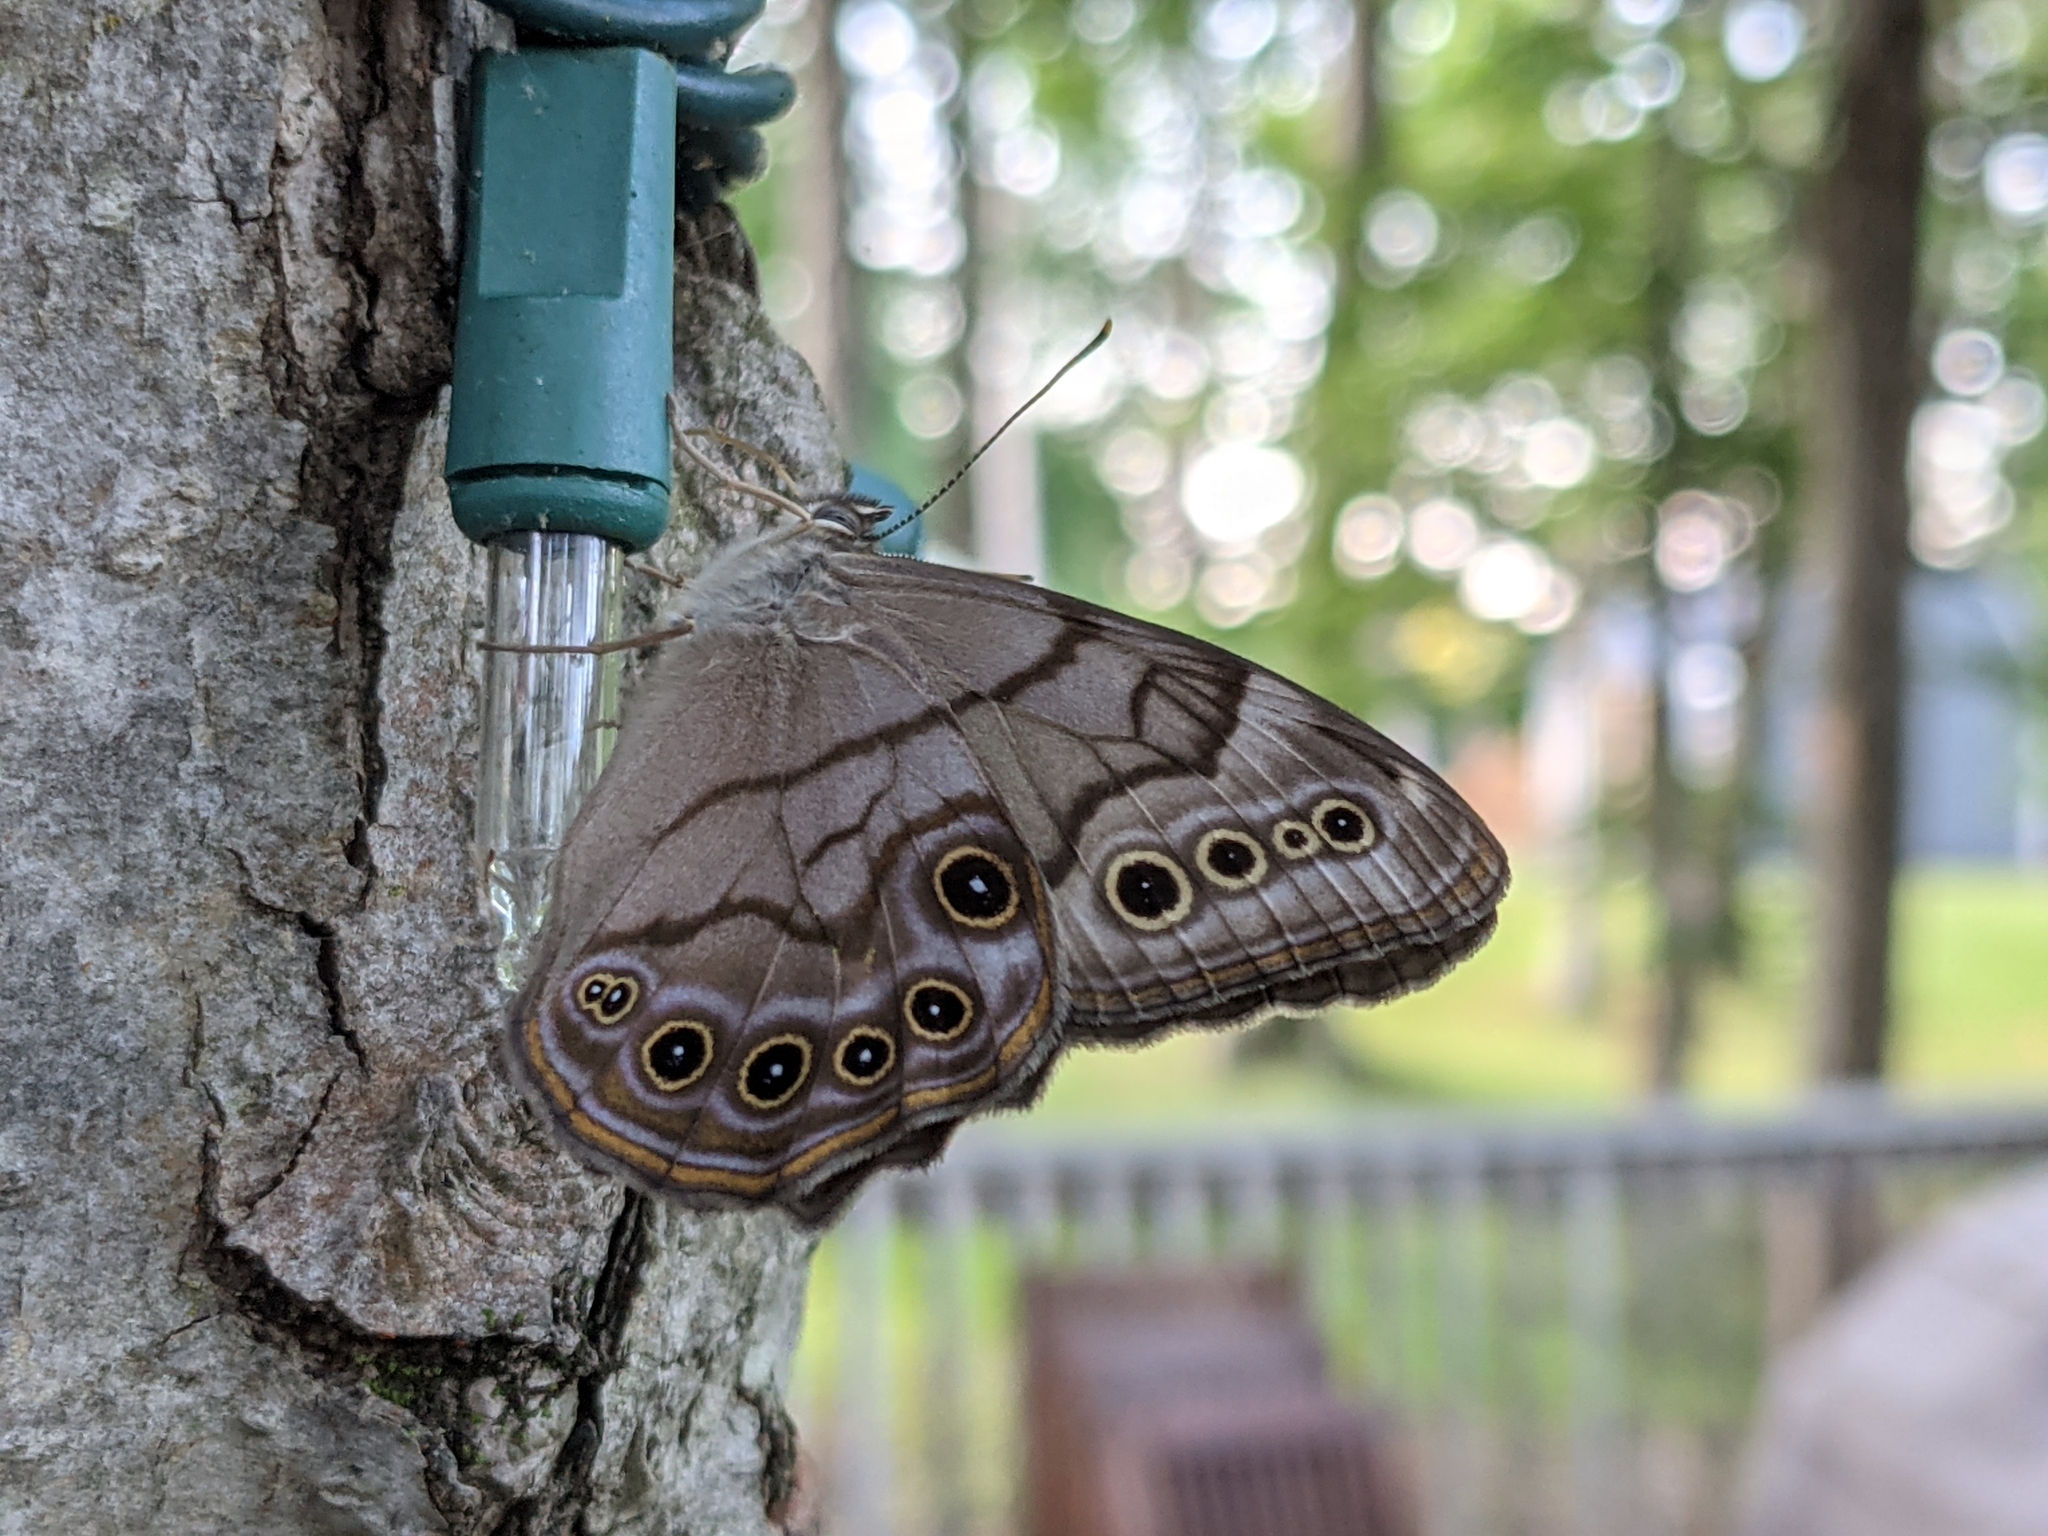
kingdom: Animalia
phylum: Arthropoda
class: Insecta
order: Lepidoptera
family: Nymphalidae
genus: Lethe
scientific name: Lethe anthedon
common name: Northern pearly-eye
